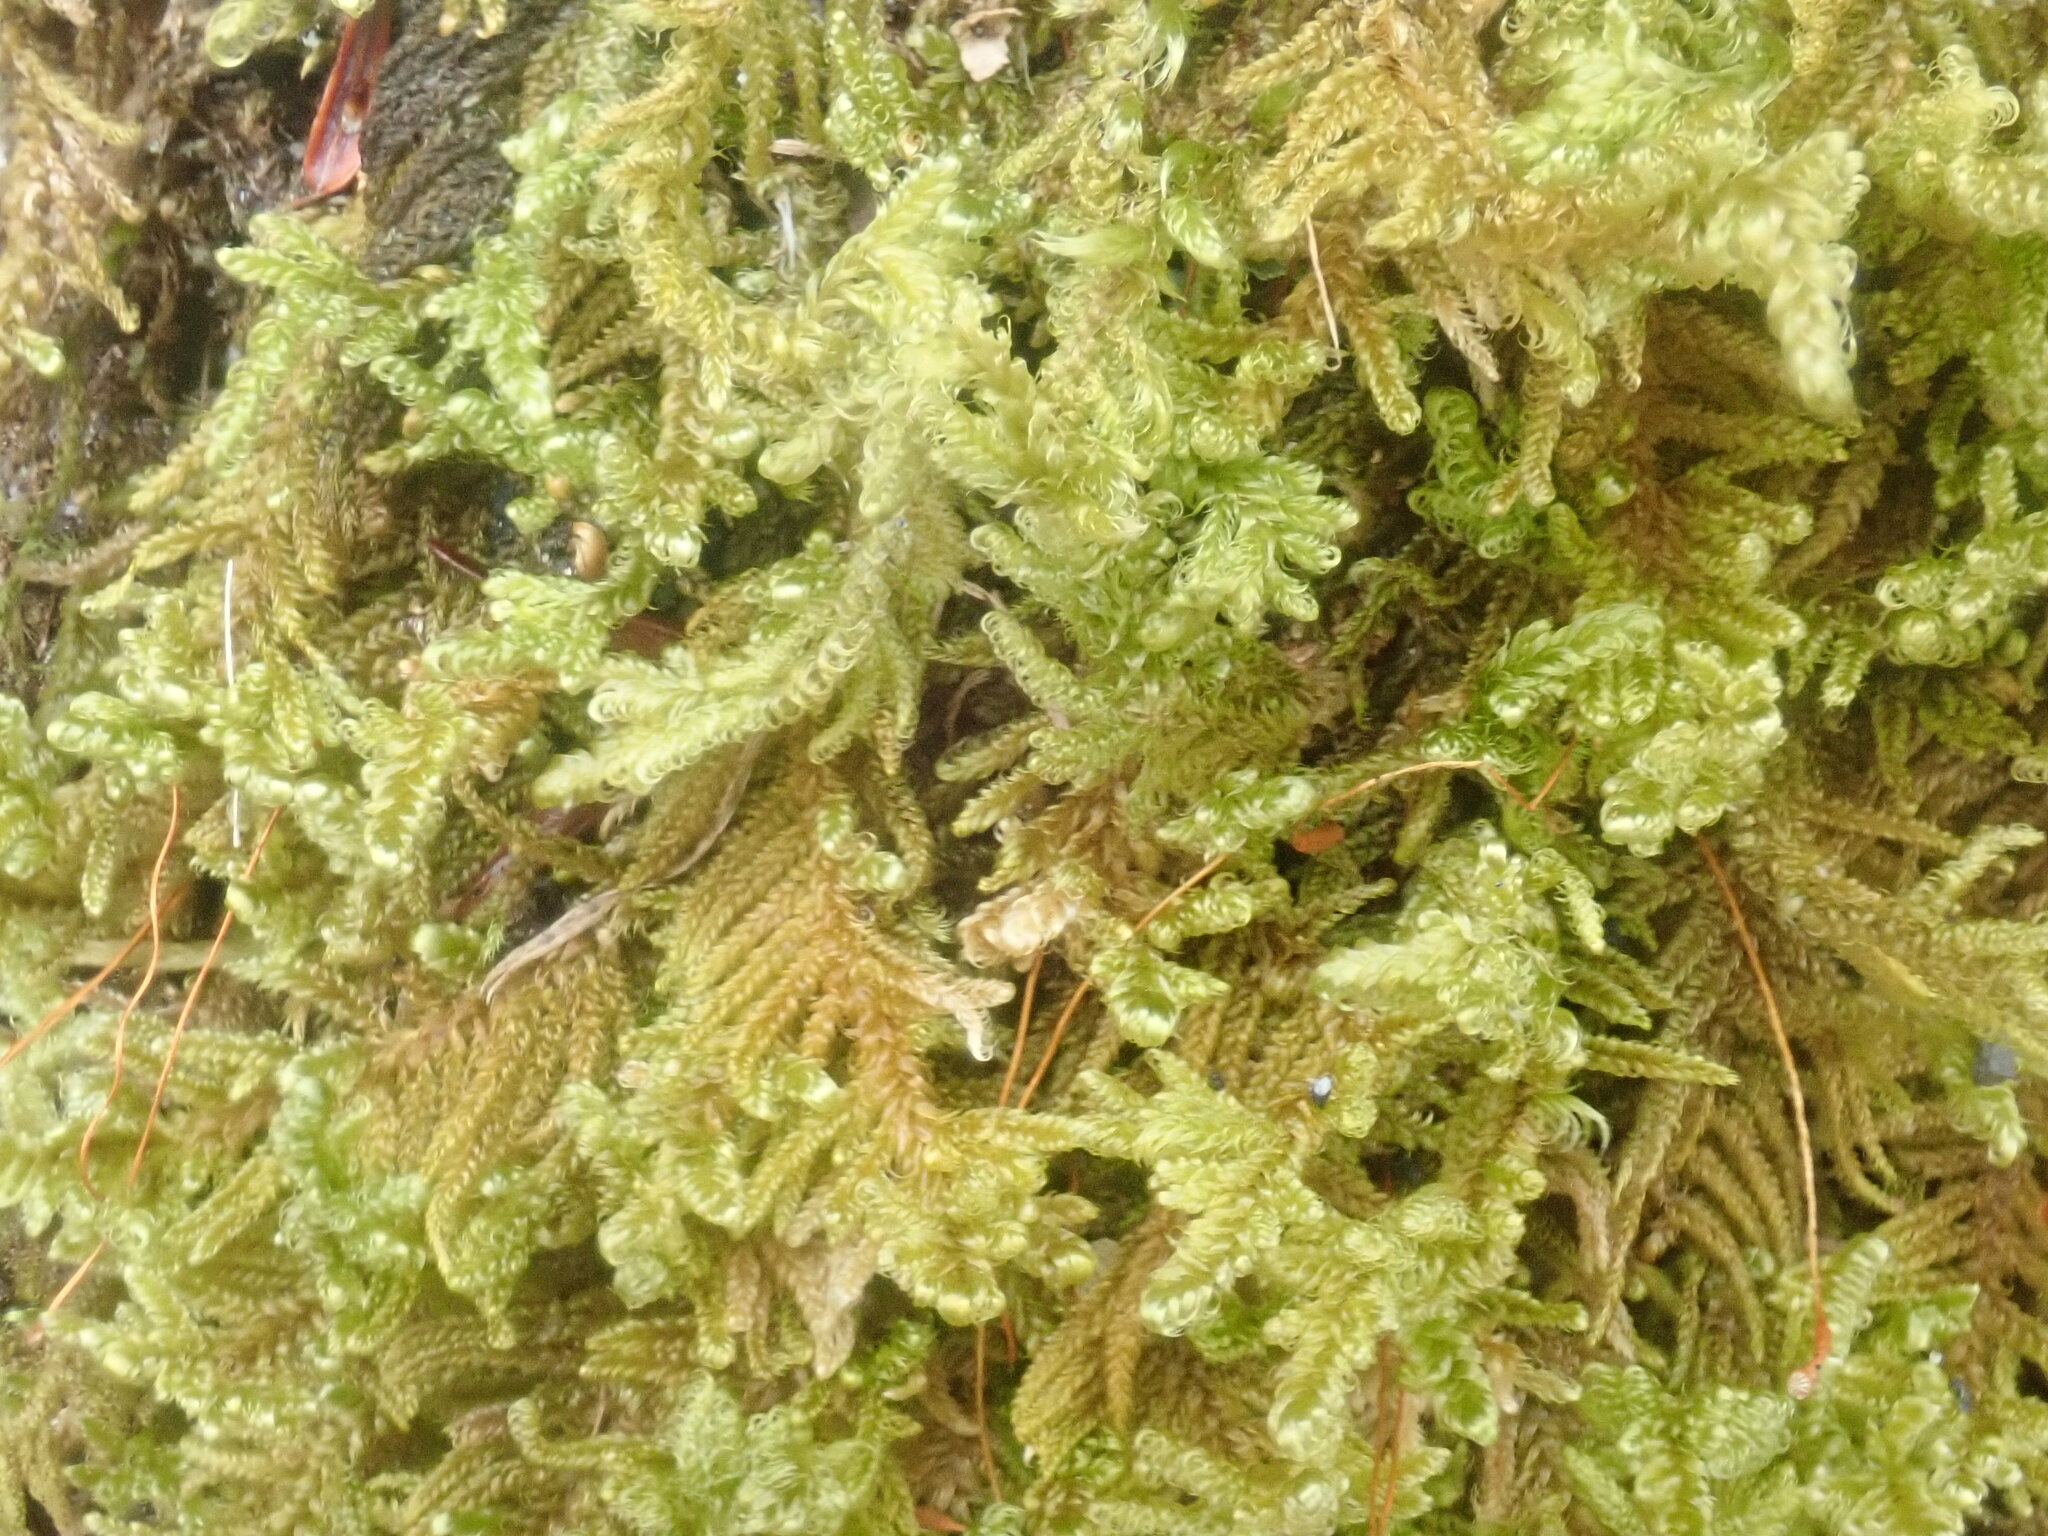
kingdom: Plantae
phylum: Bryophyta
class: Bryopsida
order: Hypnales
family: Callicladiaceae
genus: Callicladium
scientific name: Callicladium imponens
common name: Brocade moss
